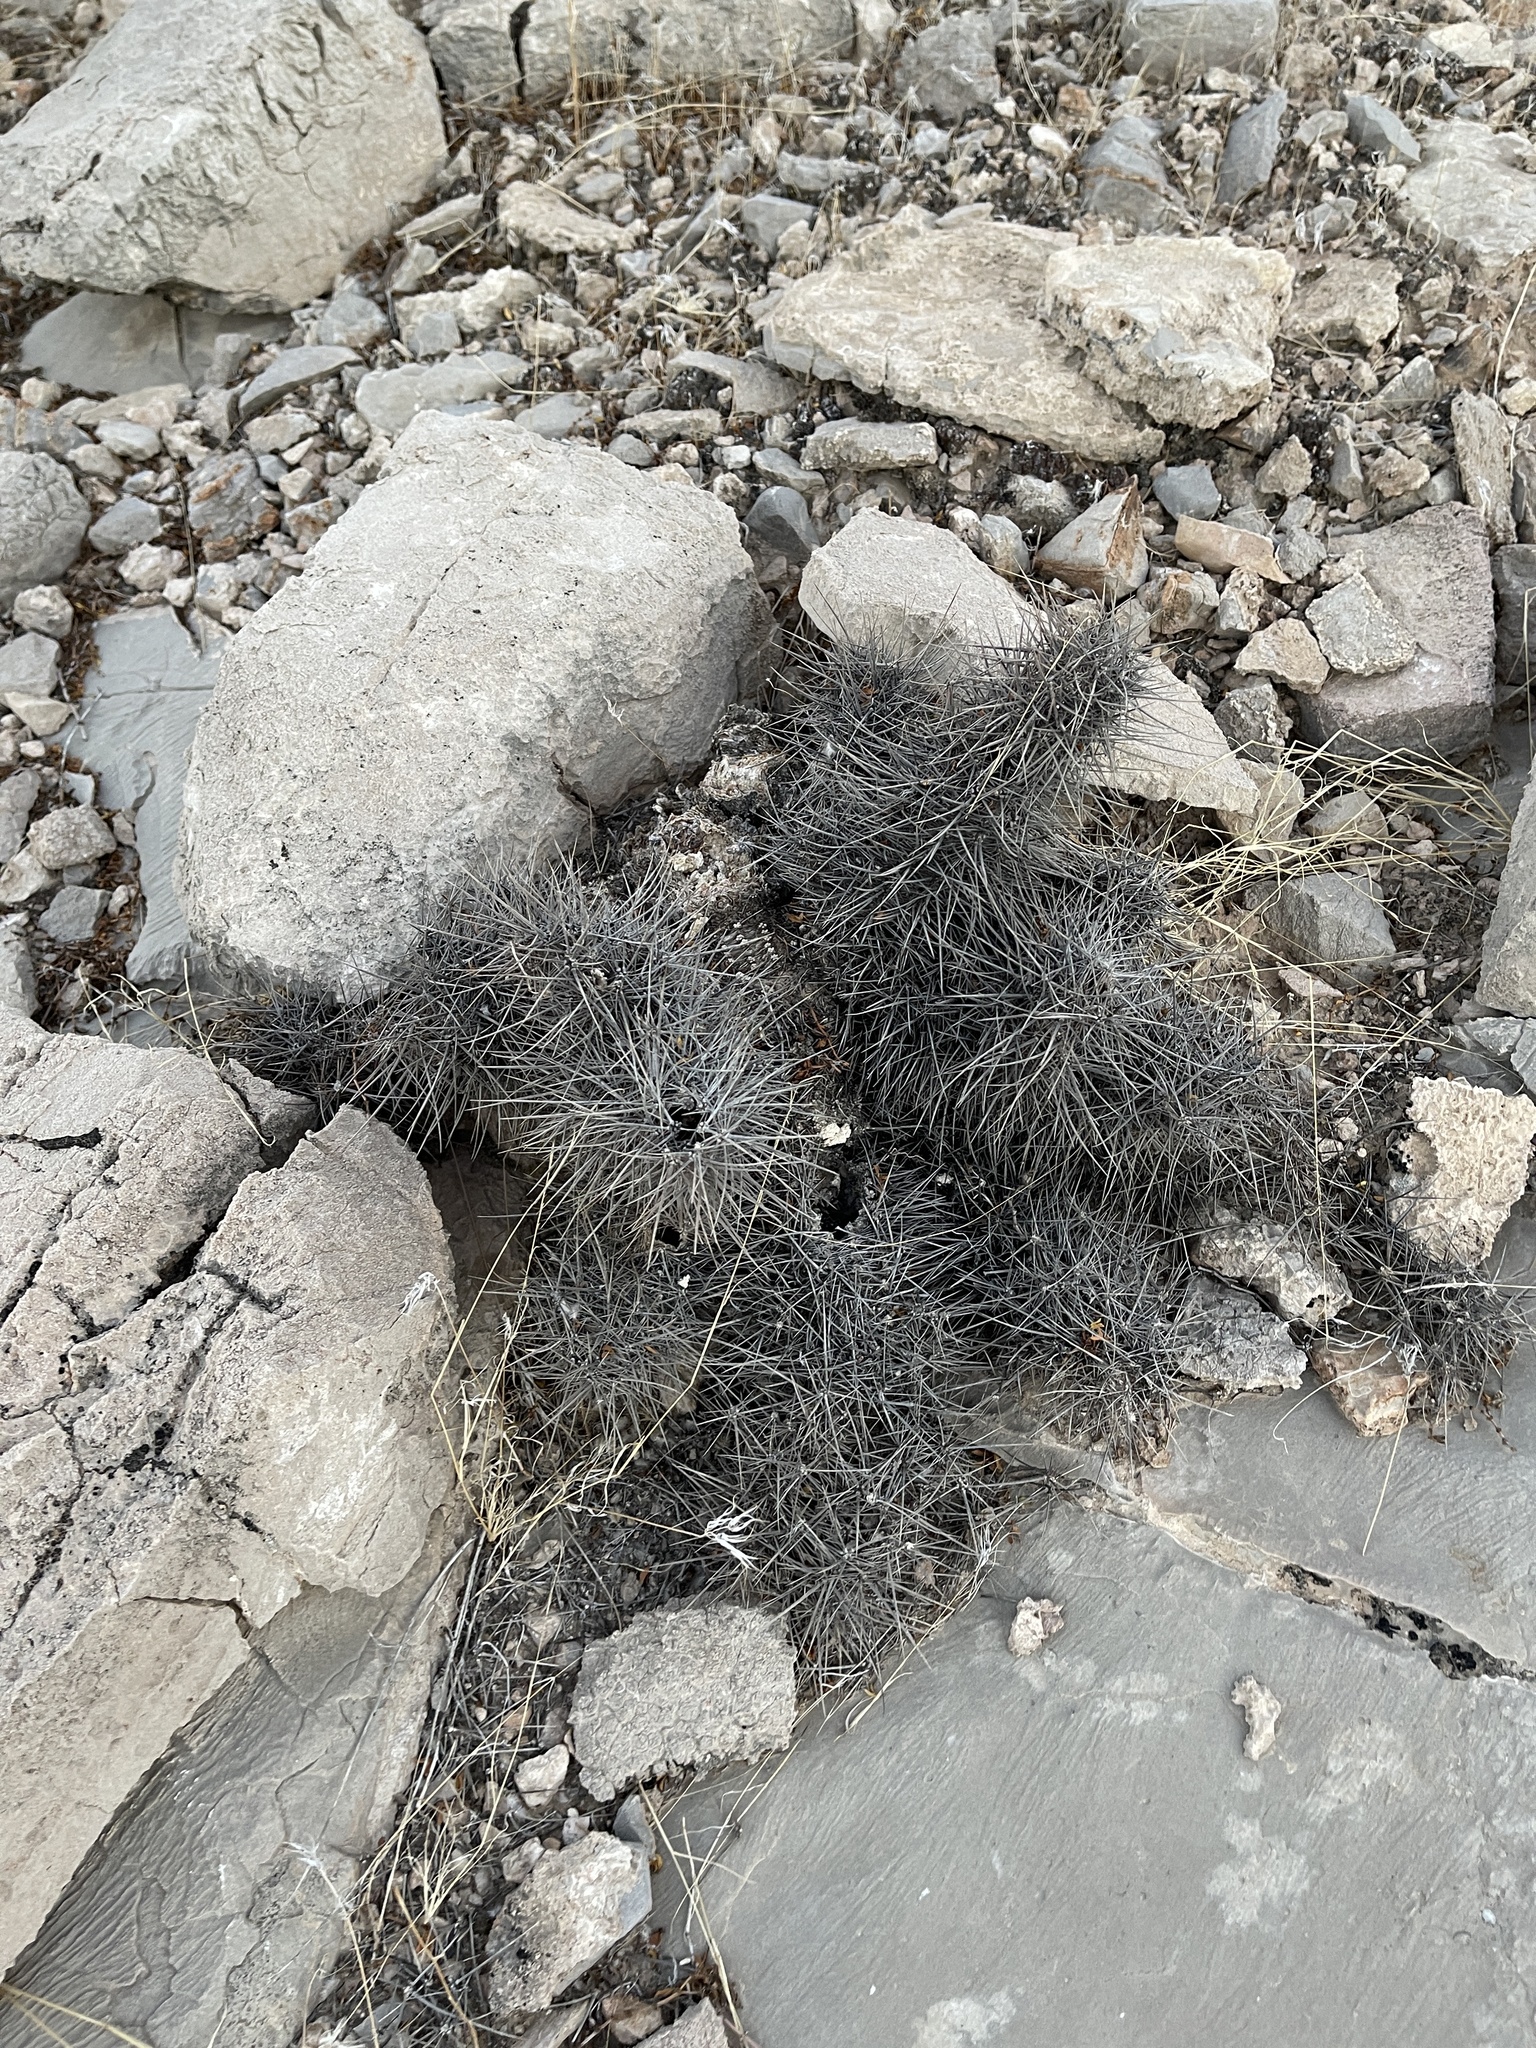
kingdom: Plantae
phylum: Tracheophyta
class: Magnoliopsida
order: Caryophyllales
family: Cactaceae
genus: Echinocereus
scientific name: Echinocereus engelmannii
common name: Engelmann's hedgehog cactus
